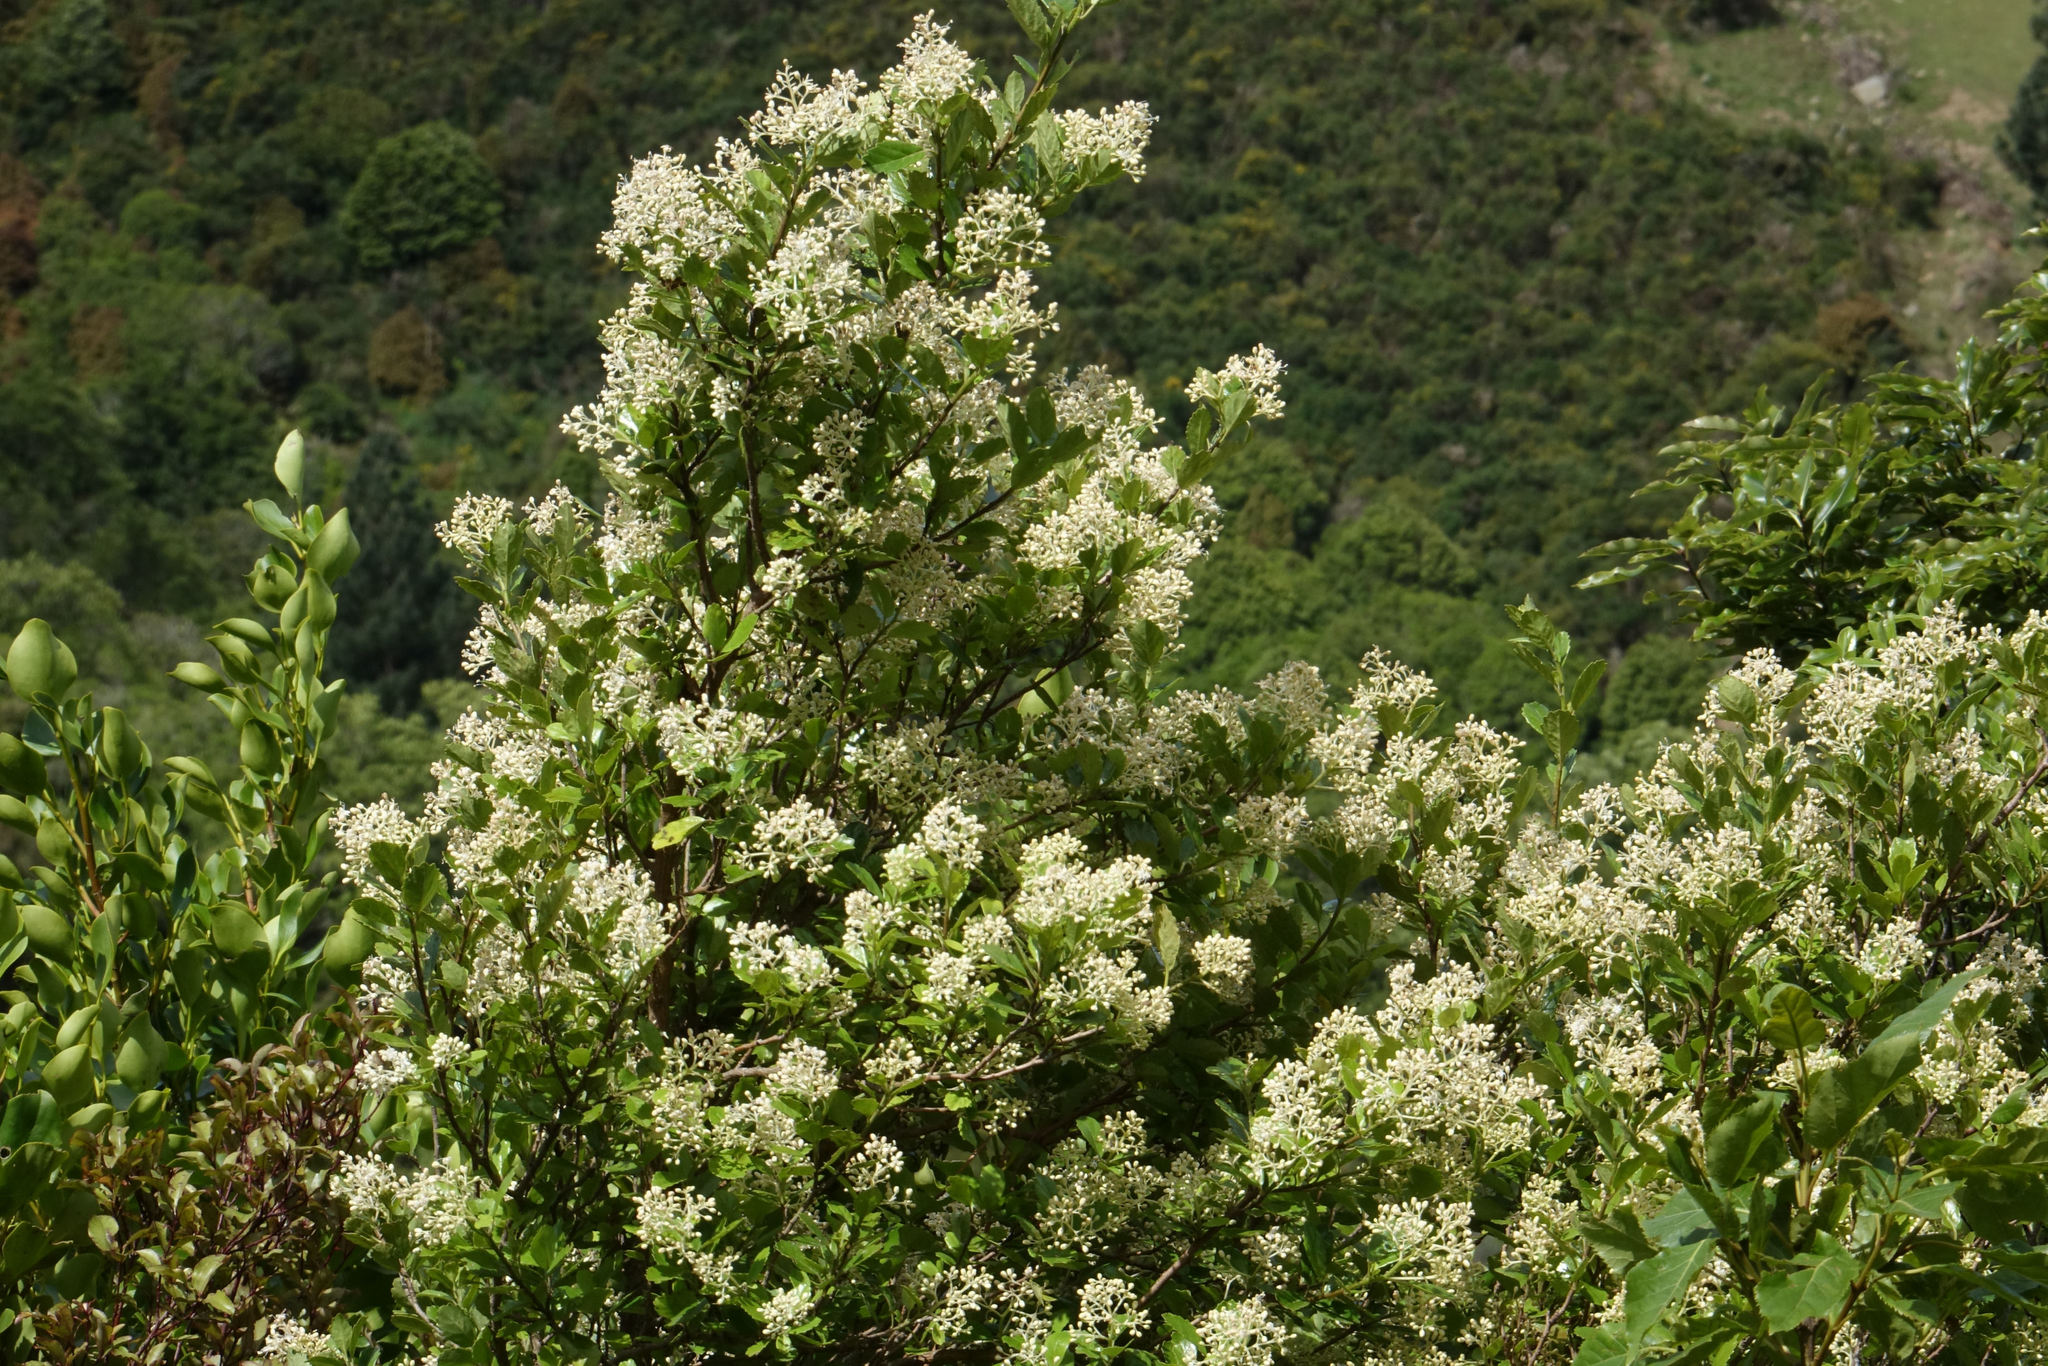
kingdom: Plantae
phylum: Tracheophyta
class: Magnoliopsida
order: Apiales
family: Pennantiaceae
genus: Pennantia
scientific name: Pennantia corymbosa
